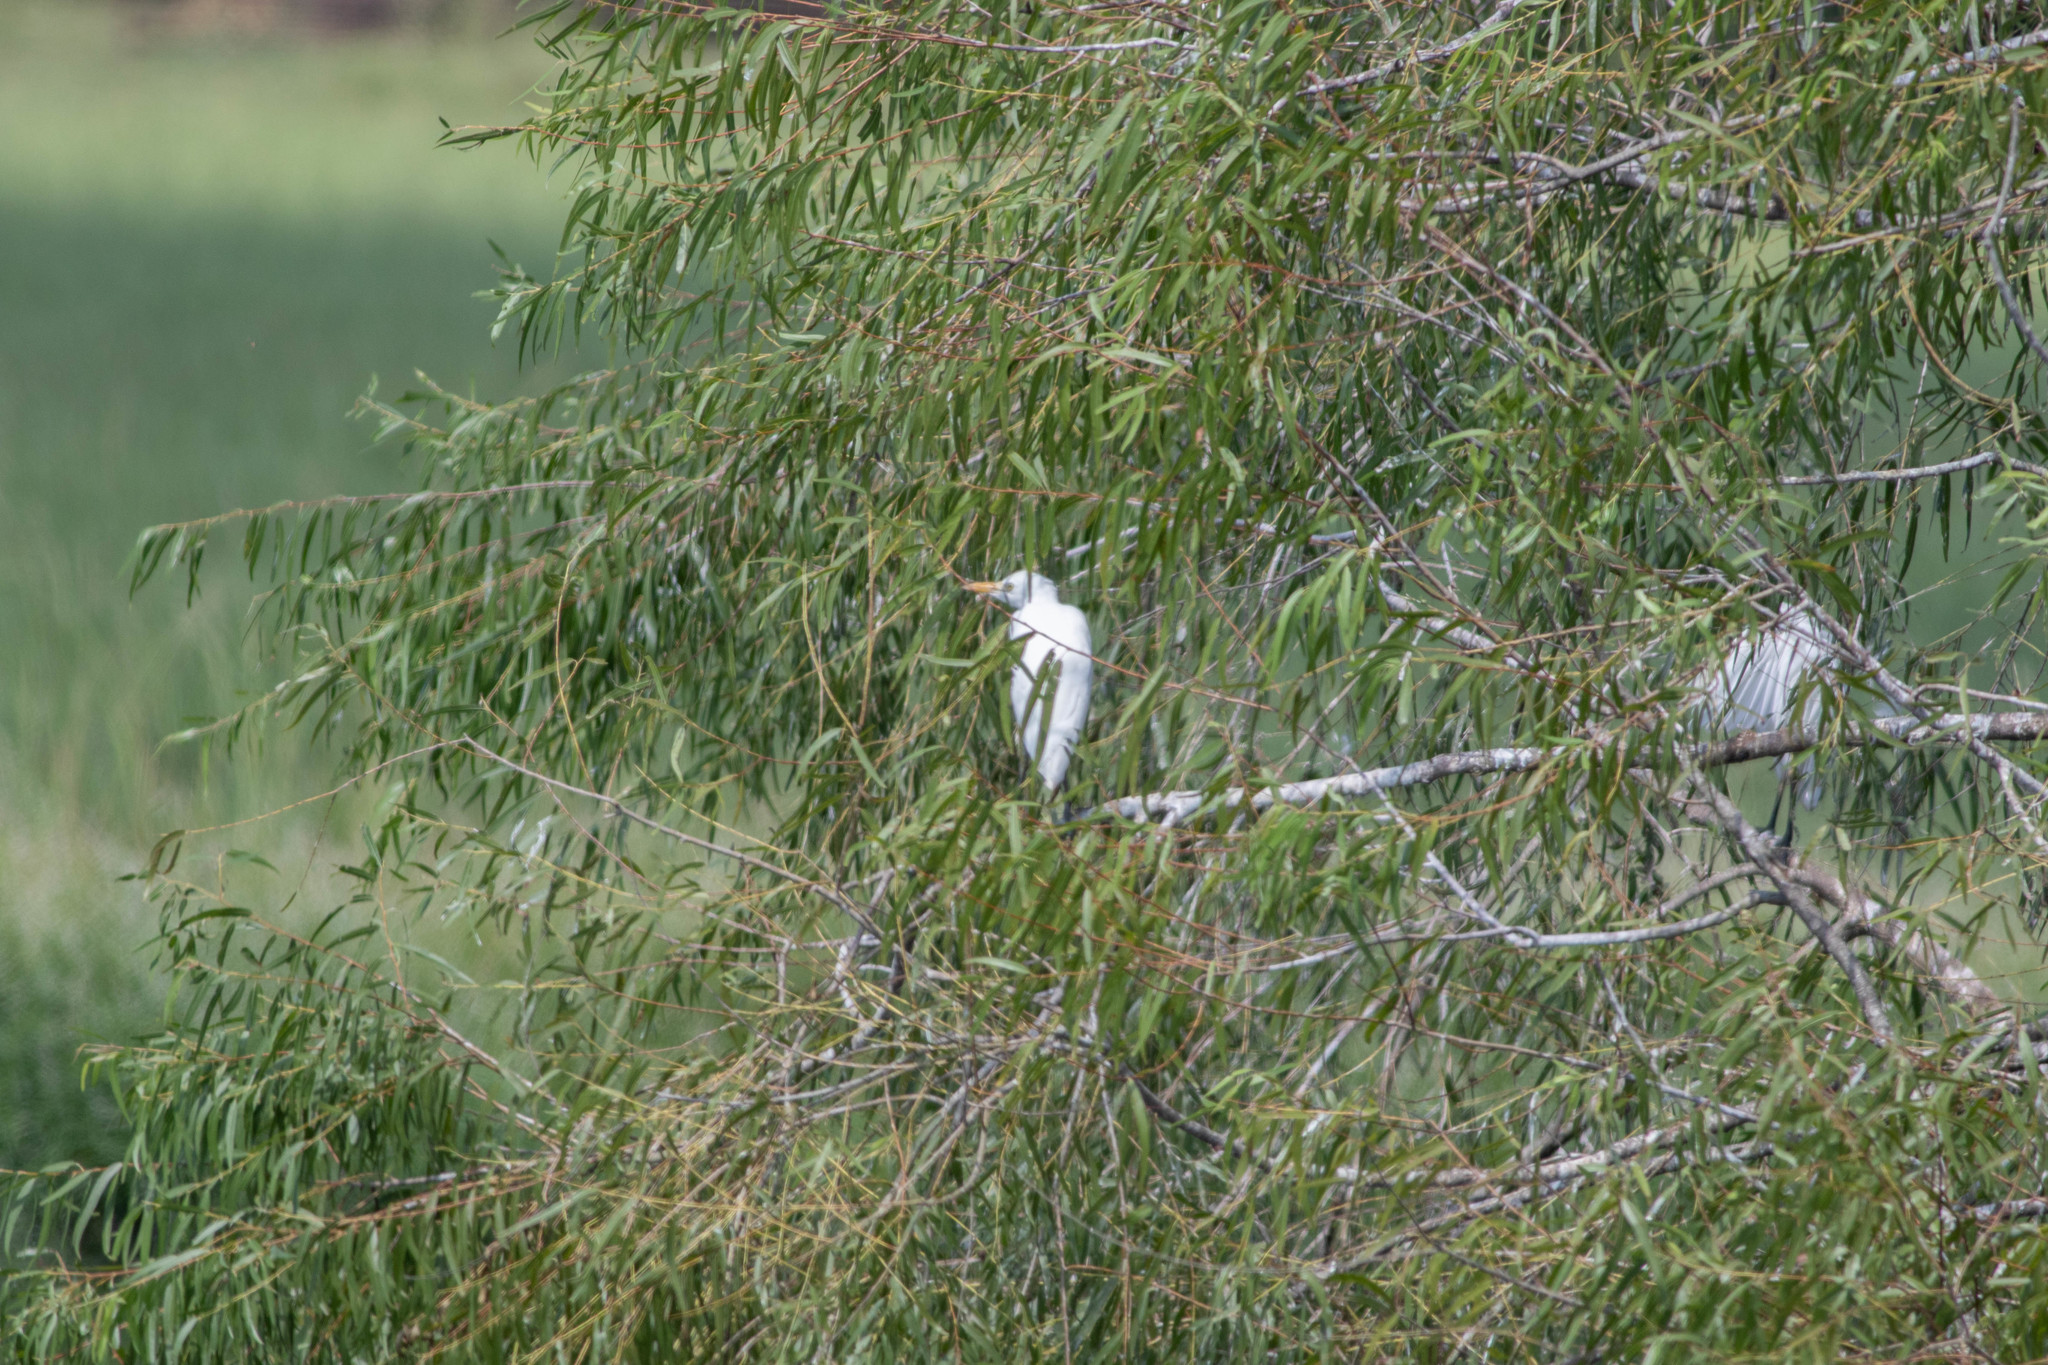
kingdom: Animalia
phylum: Chordata
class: Aves
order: Pelecaniformes
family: Ardeidae
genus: Ardea
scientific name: Ardea alba
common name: Great egret
